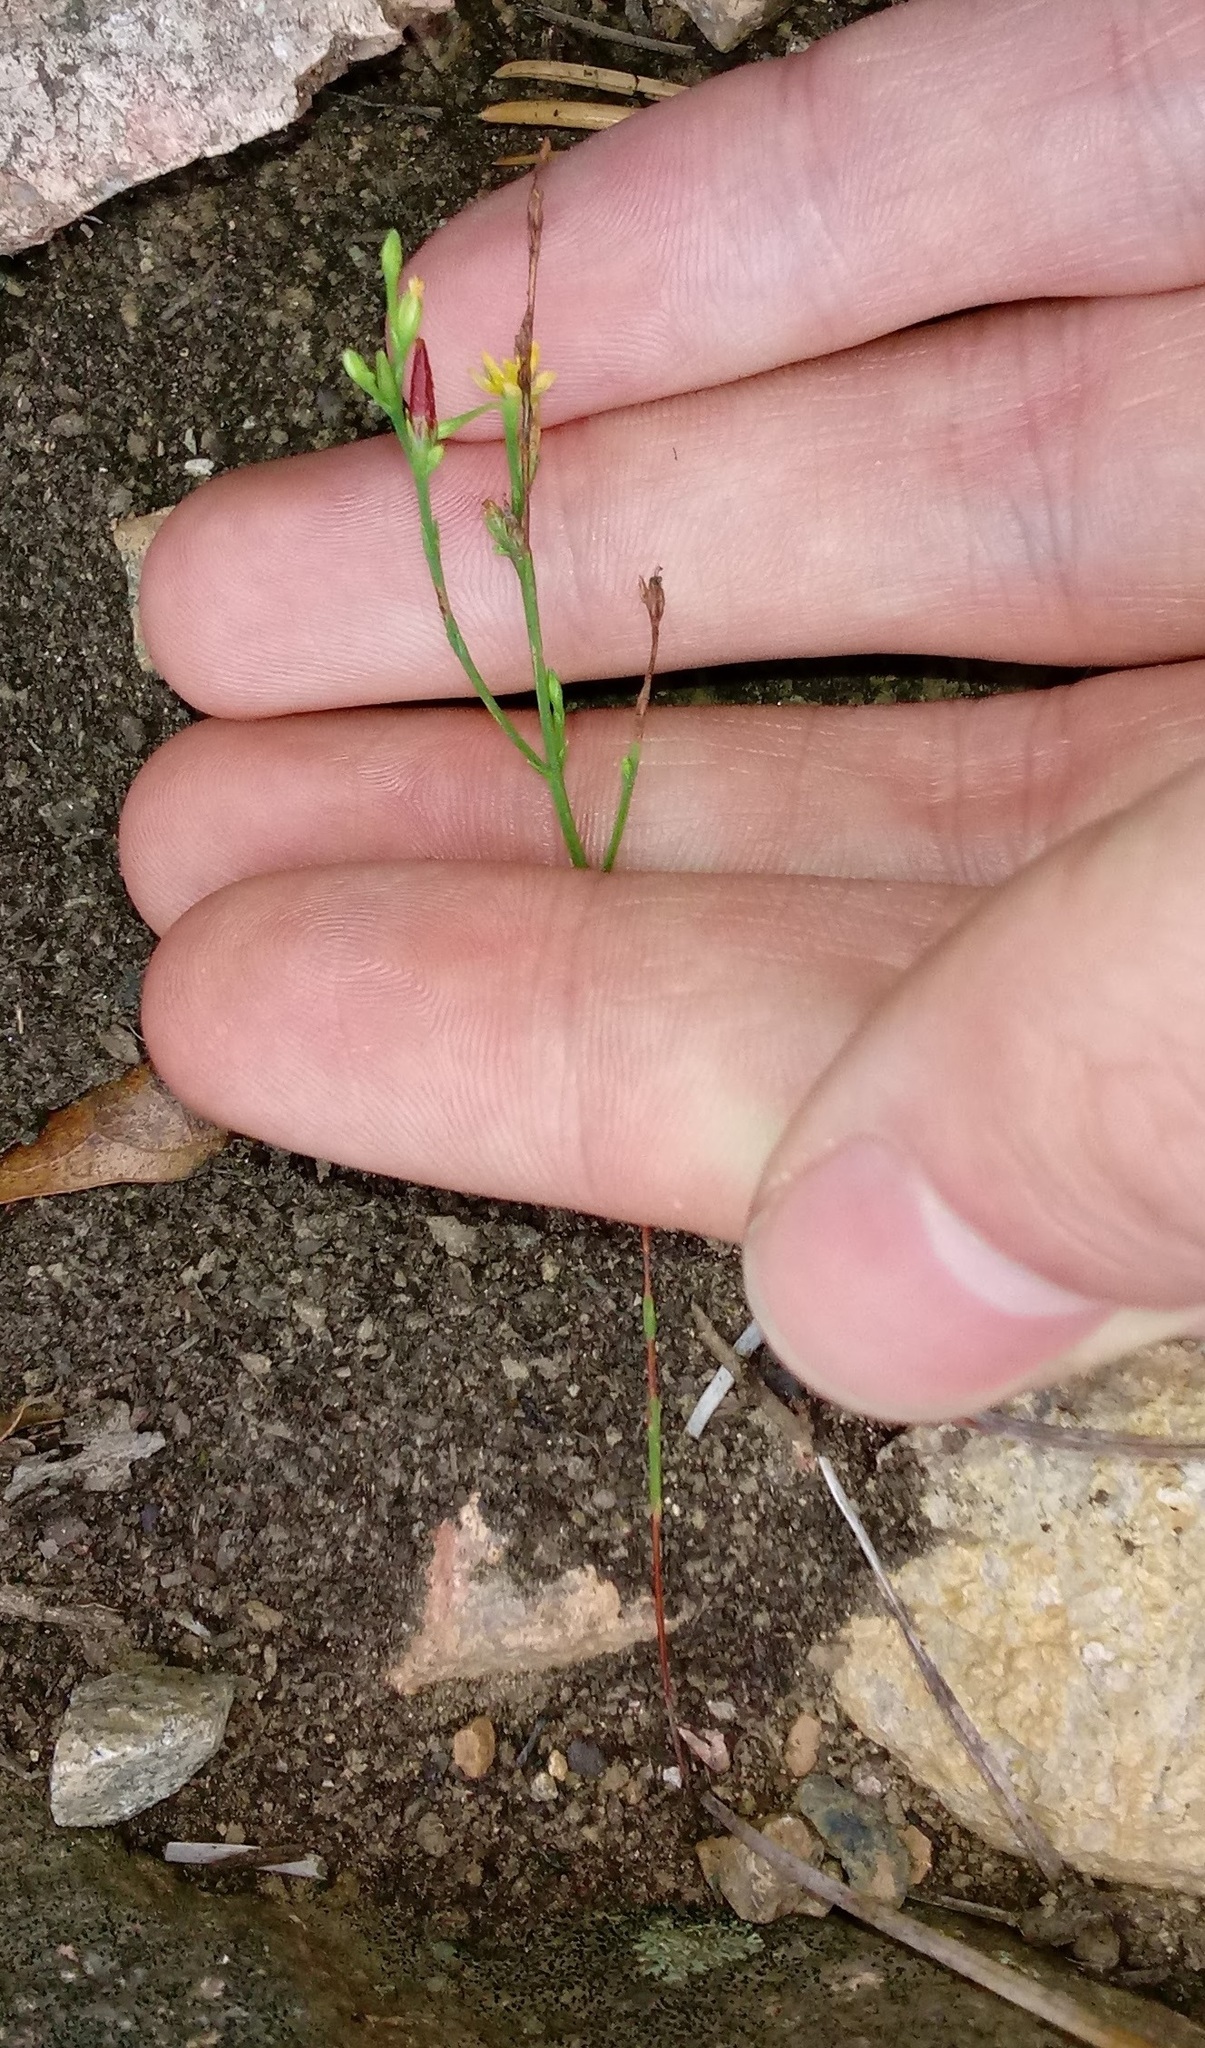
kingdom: Plantae
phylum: Tracheophyta
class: Magnoliopsida
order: Malpighiales
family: Hypericaceae
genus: Hypericum
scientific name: Hypericum gentianoides
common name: Gentian-leaved st. john's-wort
